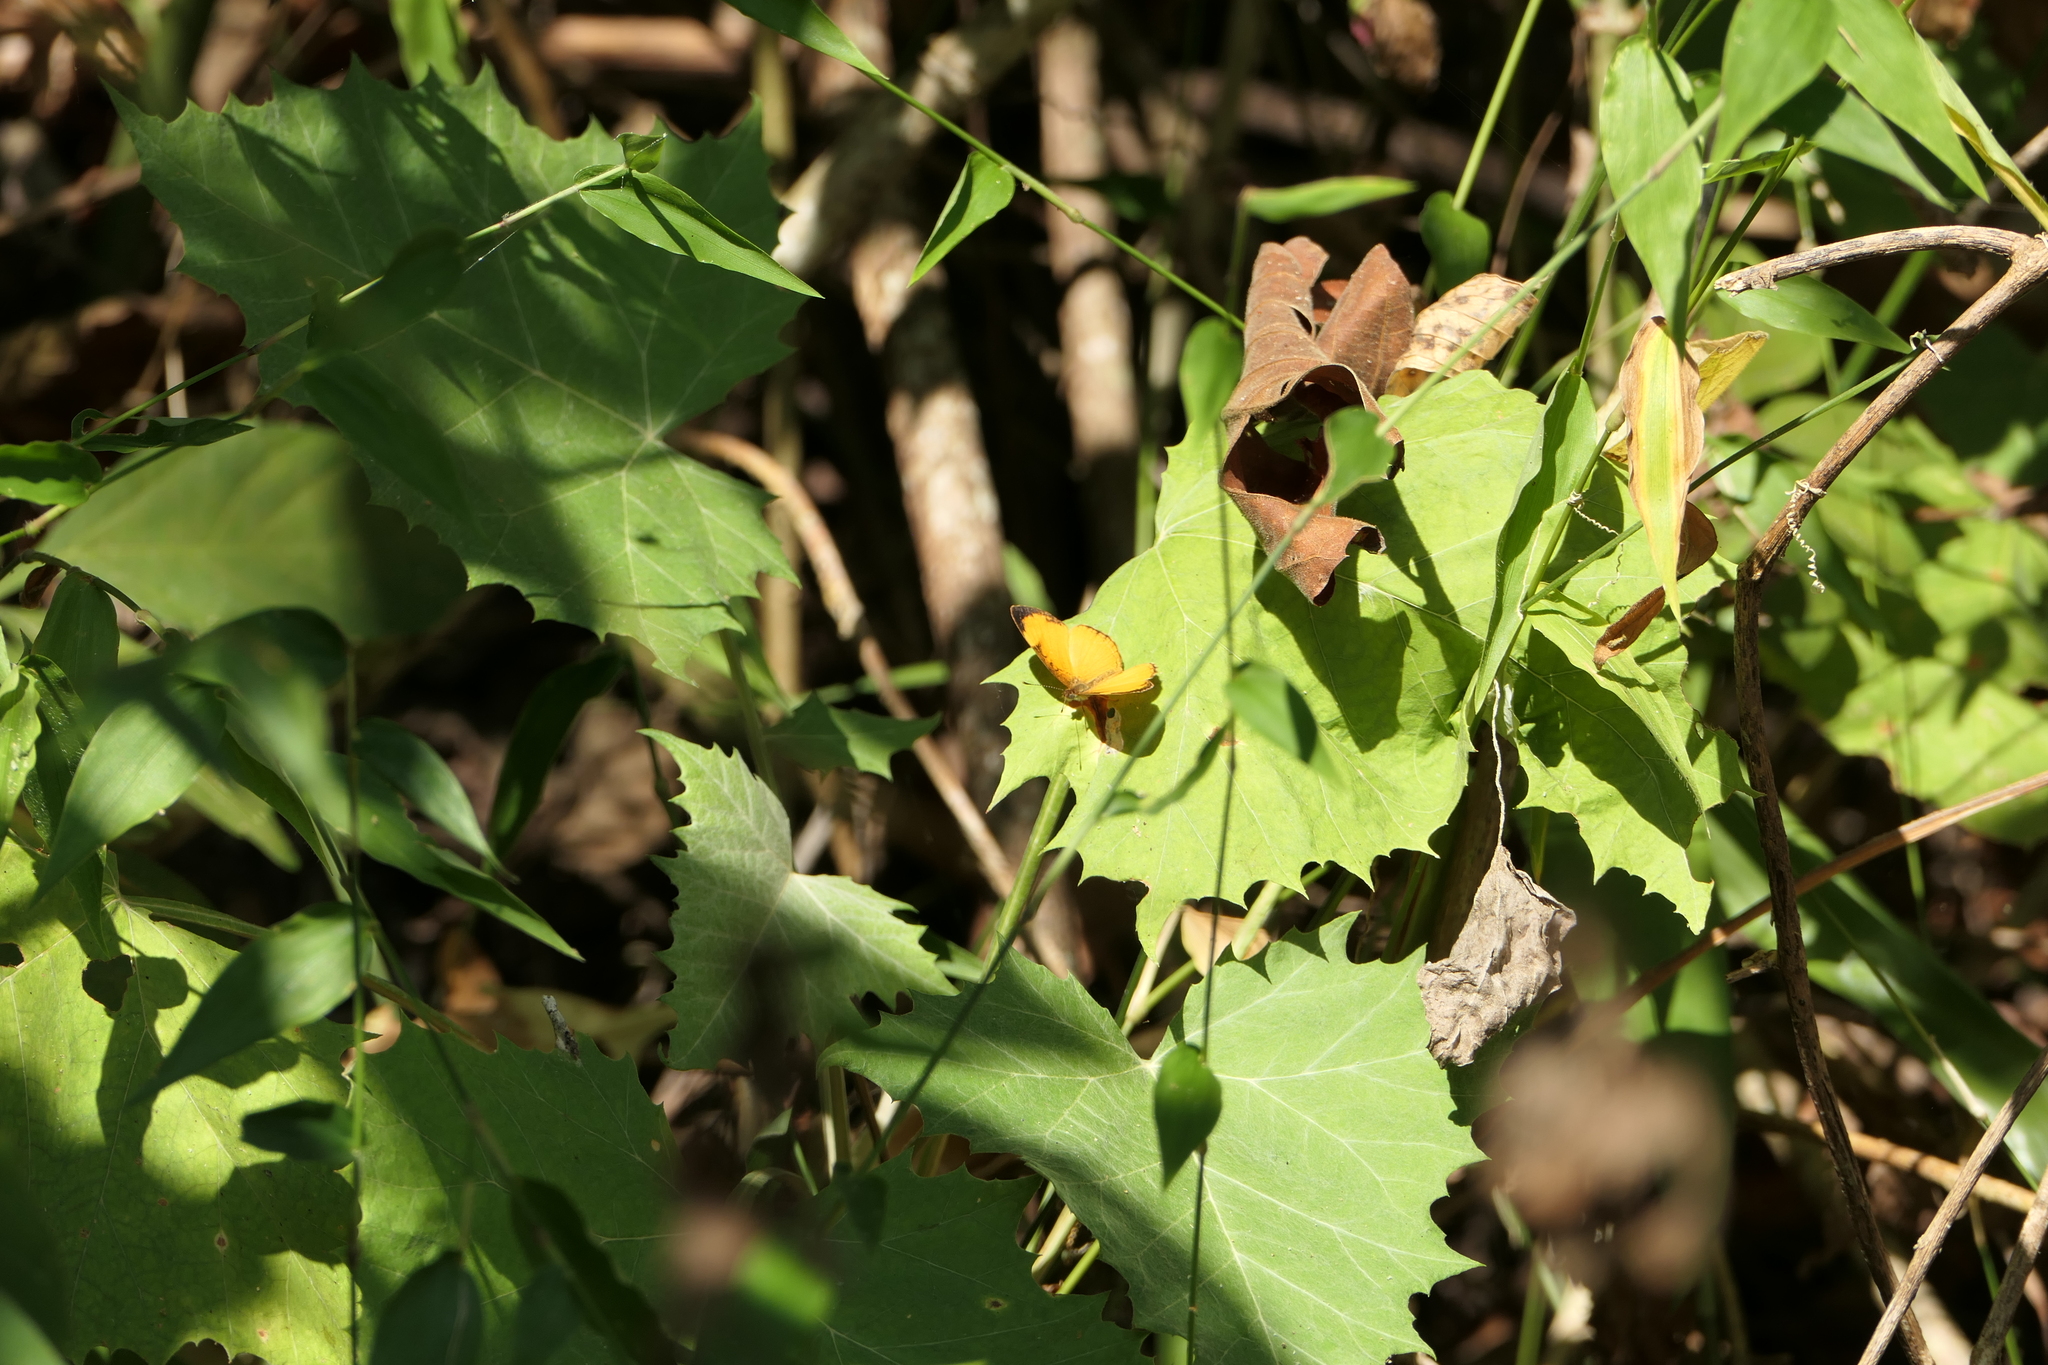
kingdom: Animalia
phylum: Arthropoda
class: Insecta
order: Lepidoptera
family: Nymphalidae
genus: Tegosa
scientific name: Tegosa guatemalena
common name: Guatemalan crescent
